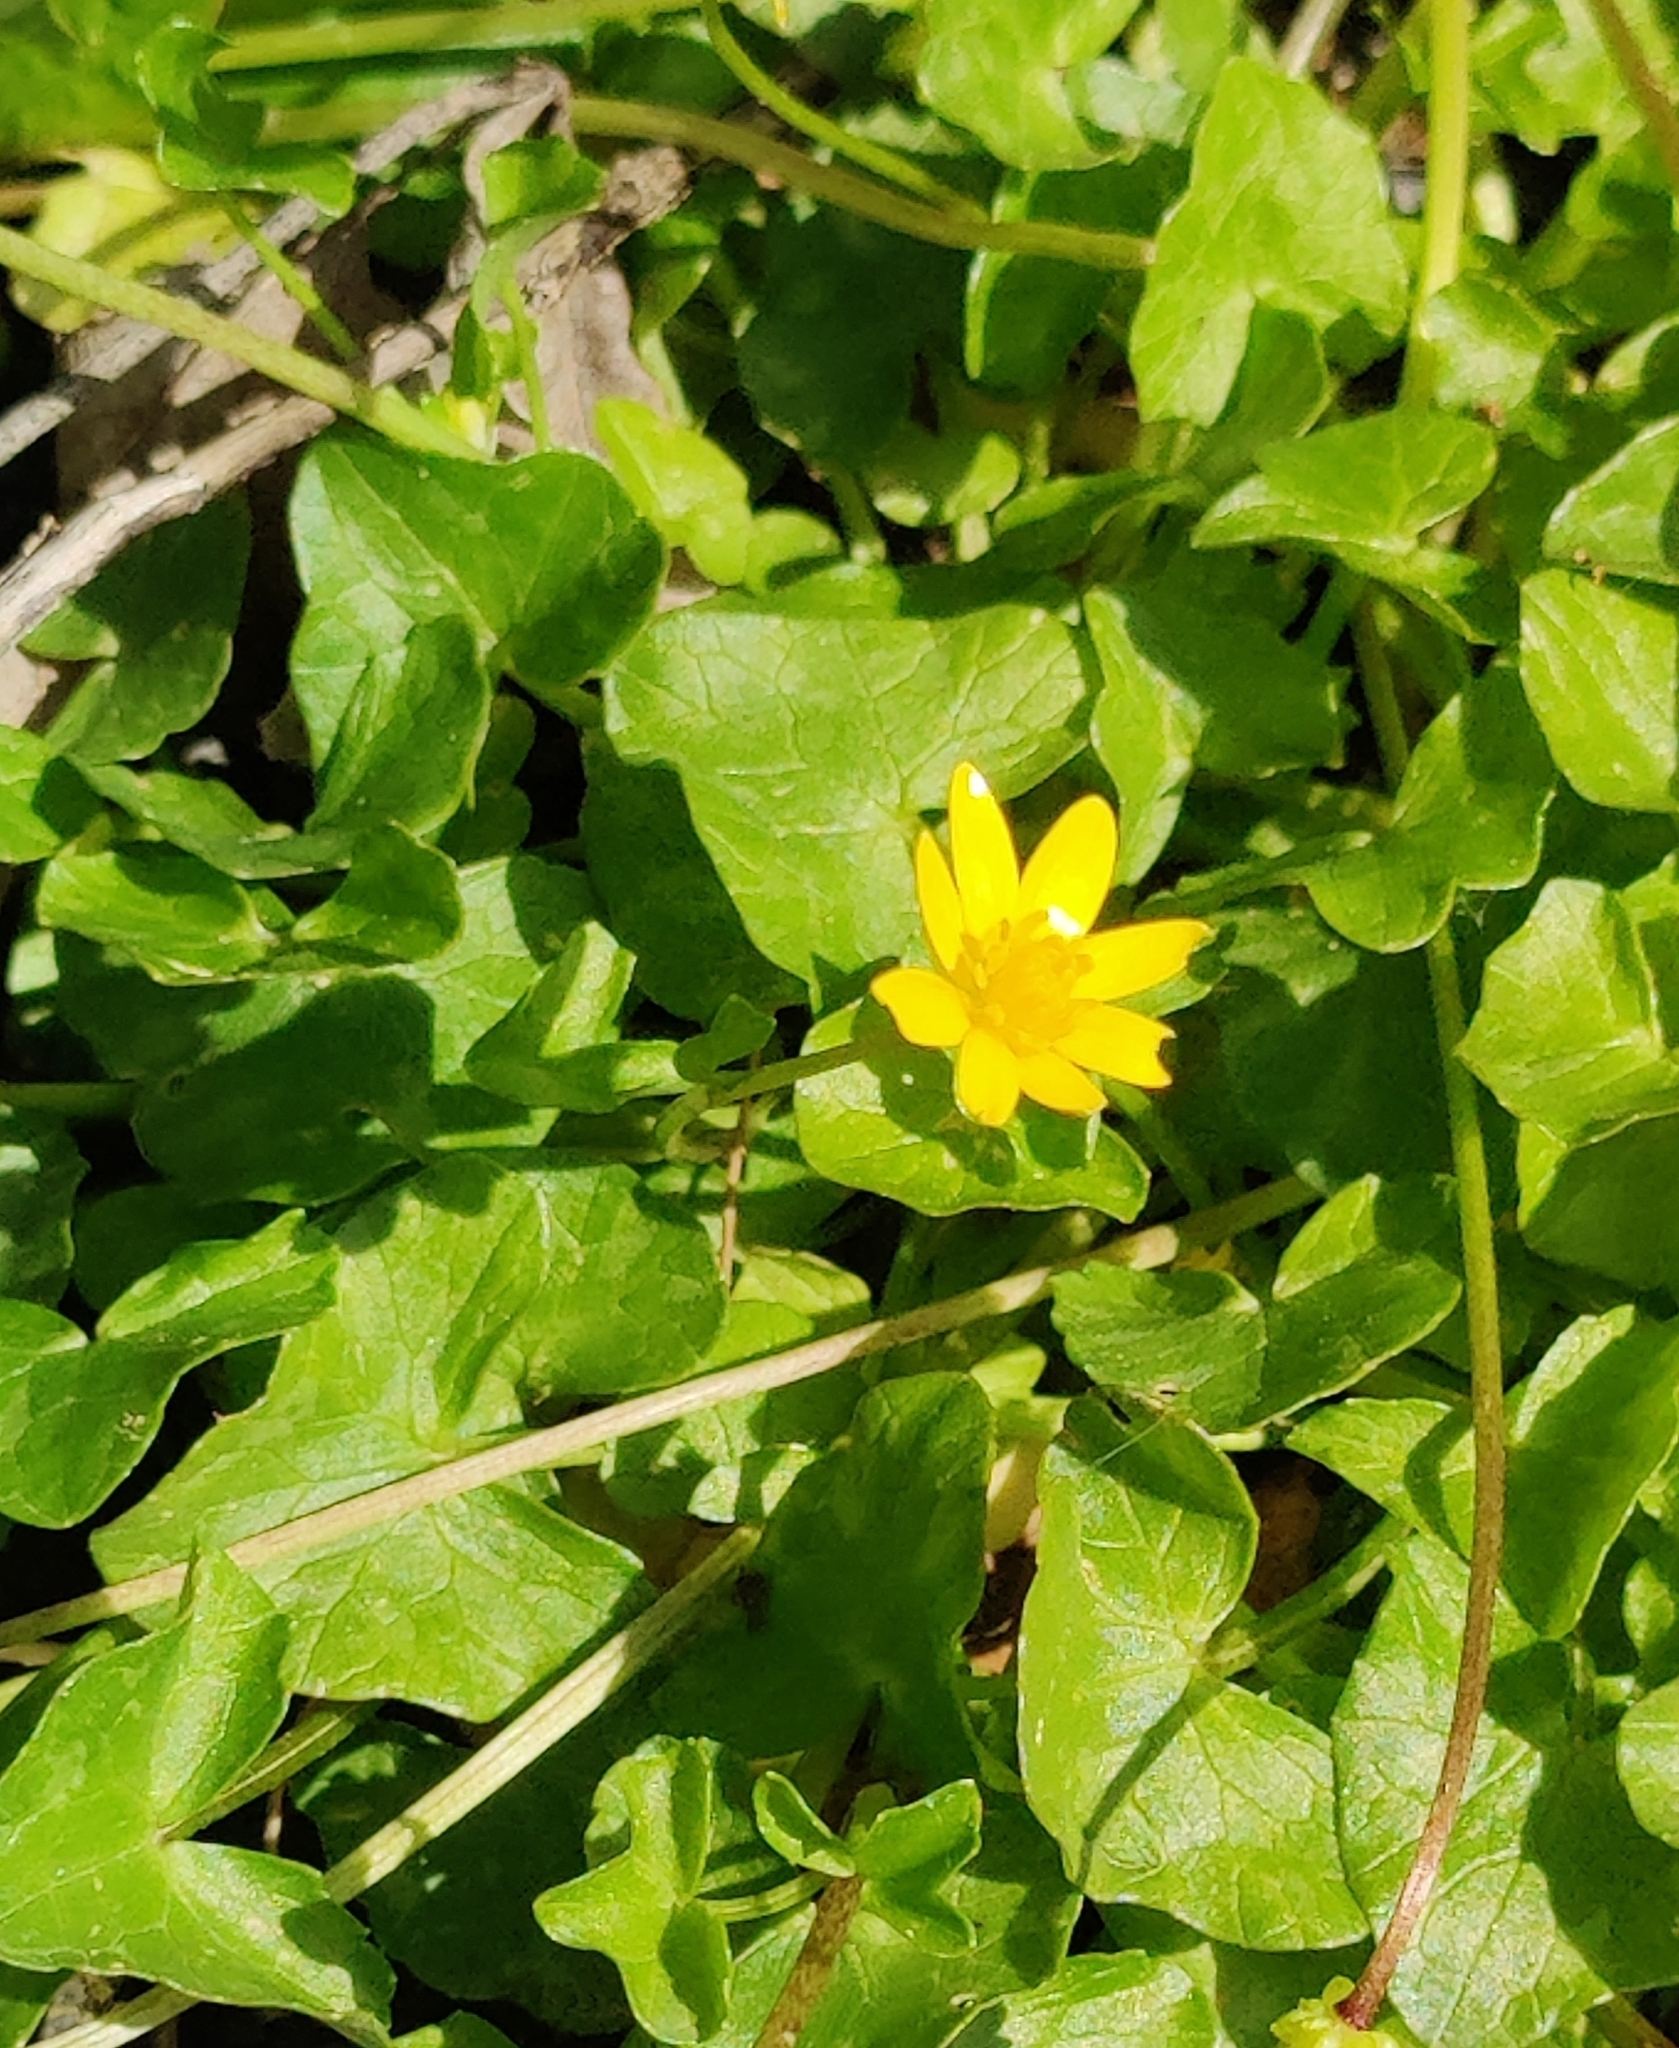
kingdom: Plantae
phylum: Tracheophyta
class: Magnoliopsida
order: Ranunculales
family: Ranunculaceae
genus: Ficaria
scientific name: Ficaria verna
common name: Lesser celandine
